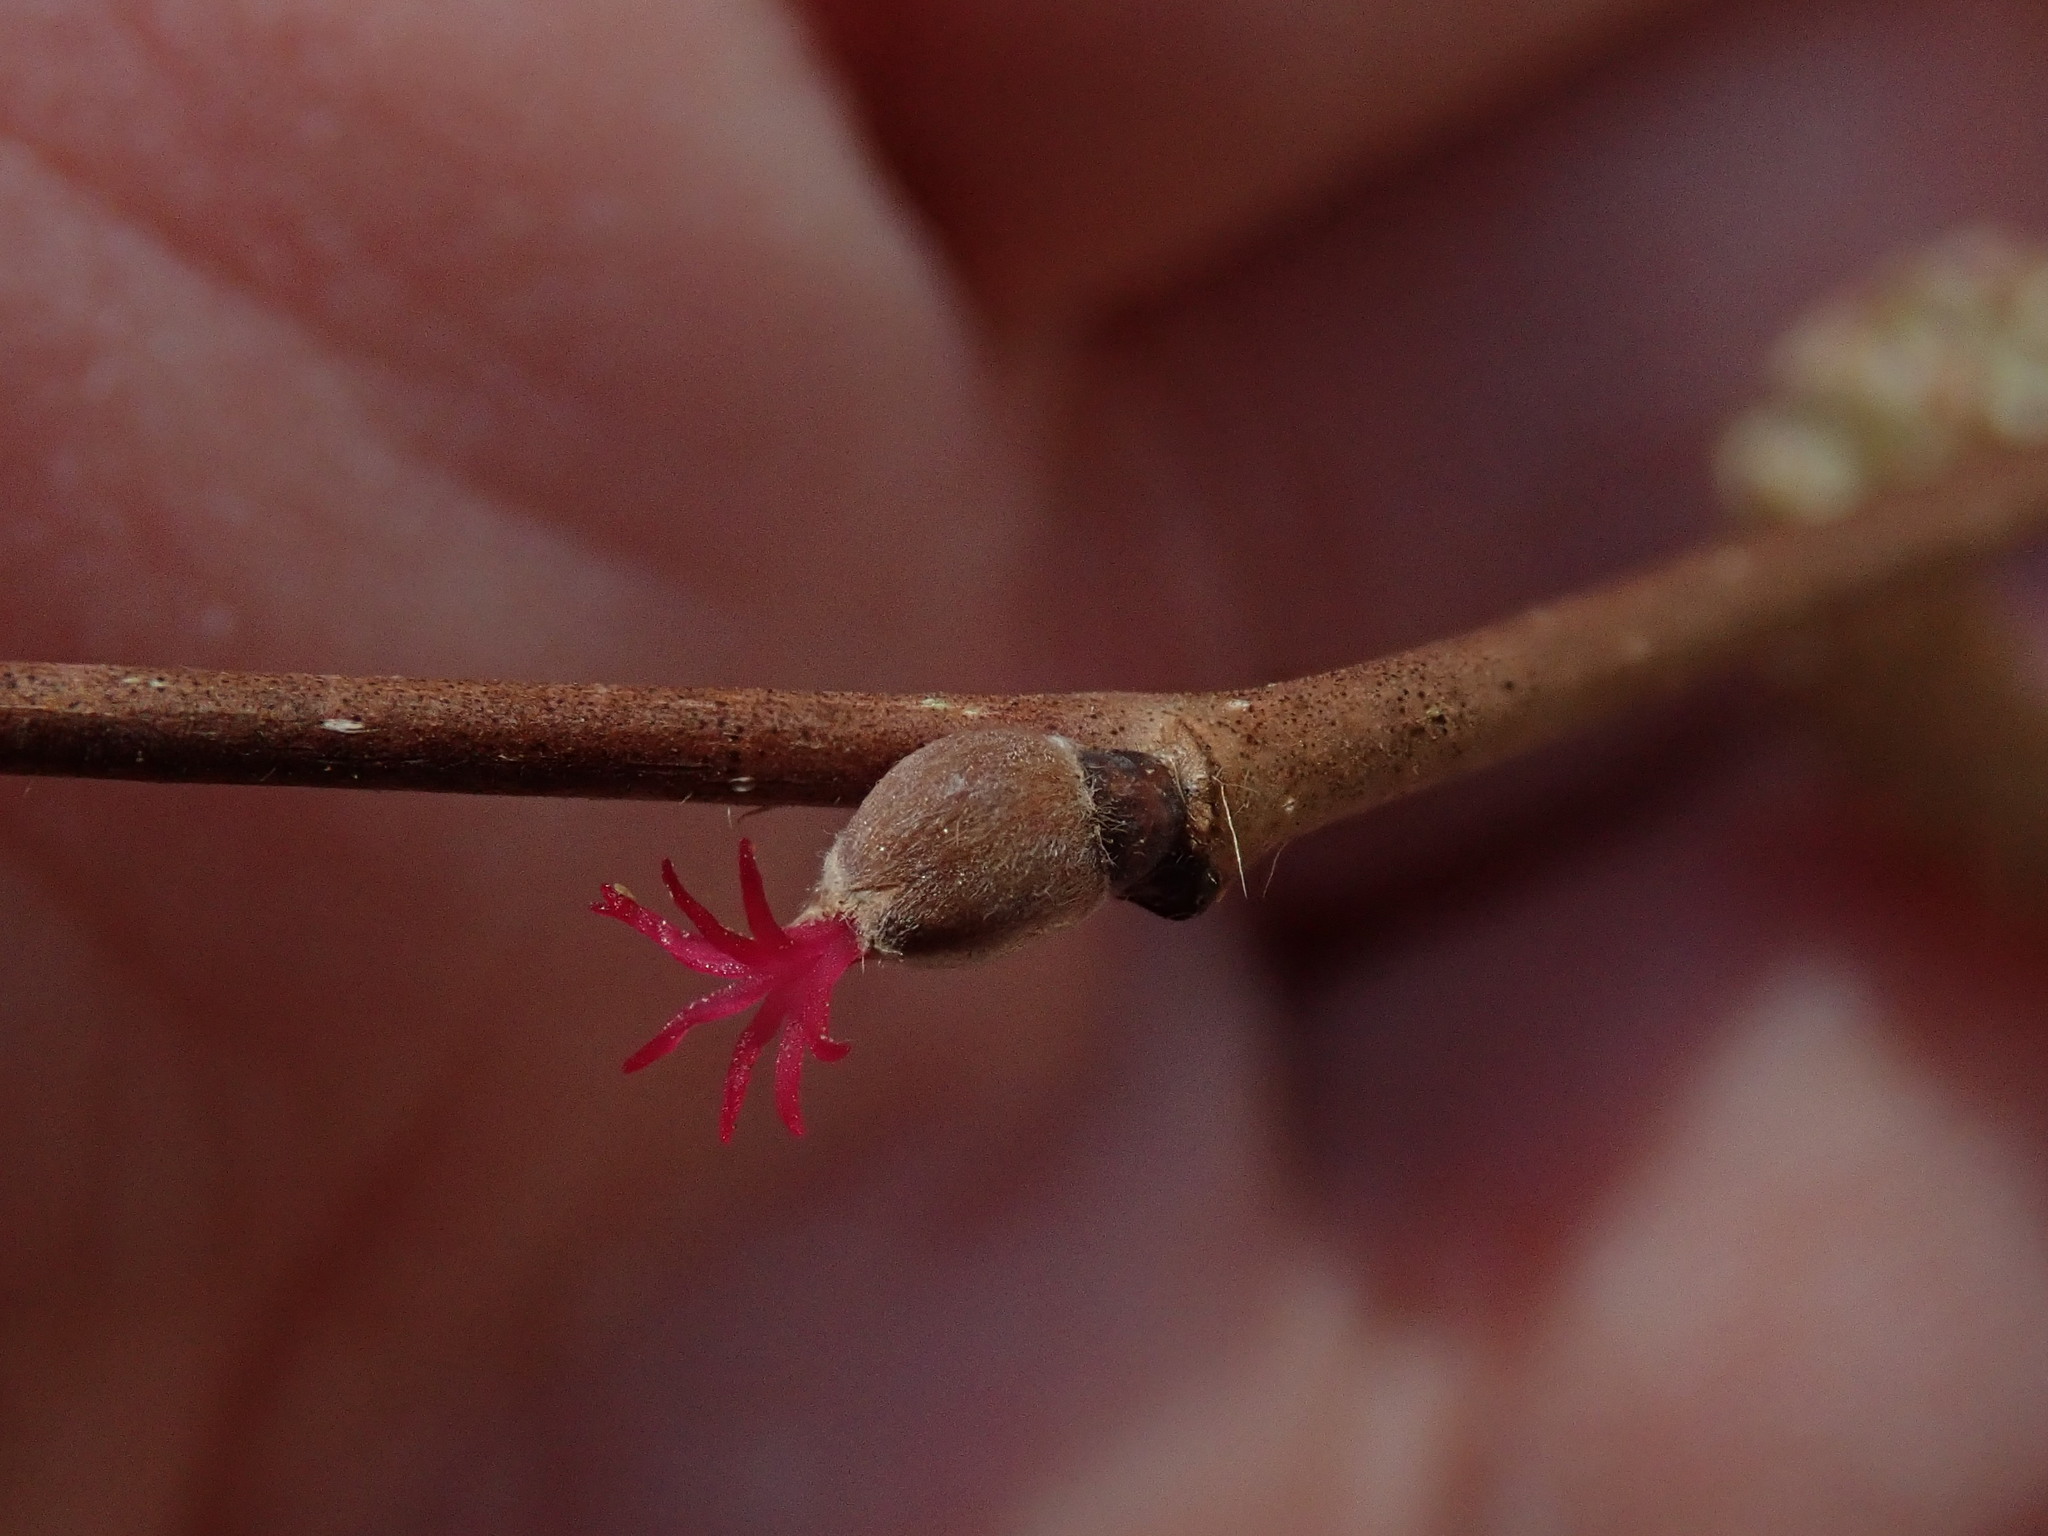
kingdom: Plantae
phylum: Tracheophyta
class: Magnoliopsida
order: Fagales
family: Betulaceae
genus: Corylus
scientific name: Corylus cornuta
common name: Beaked hazel
